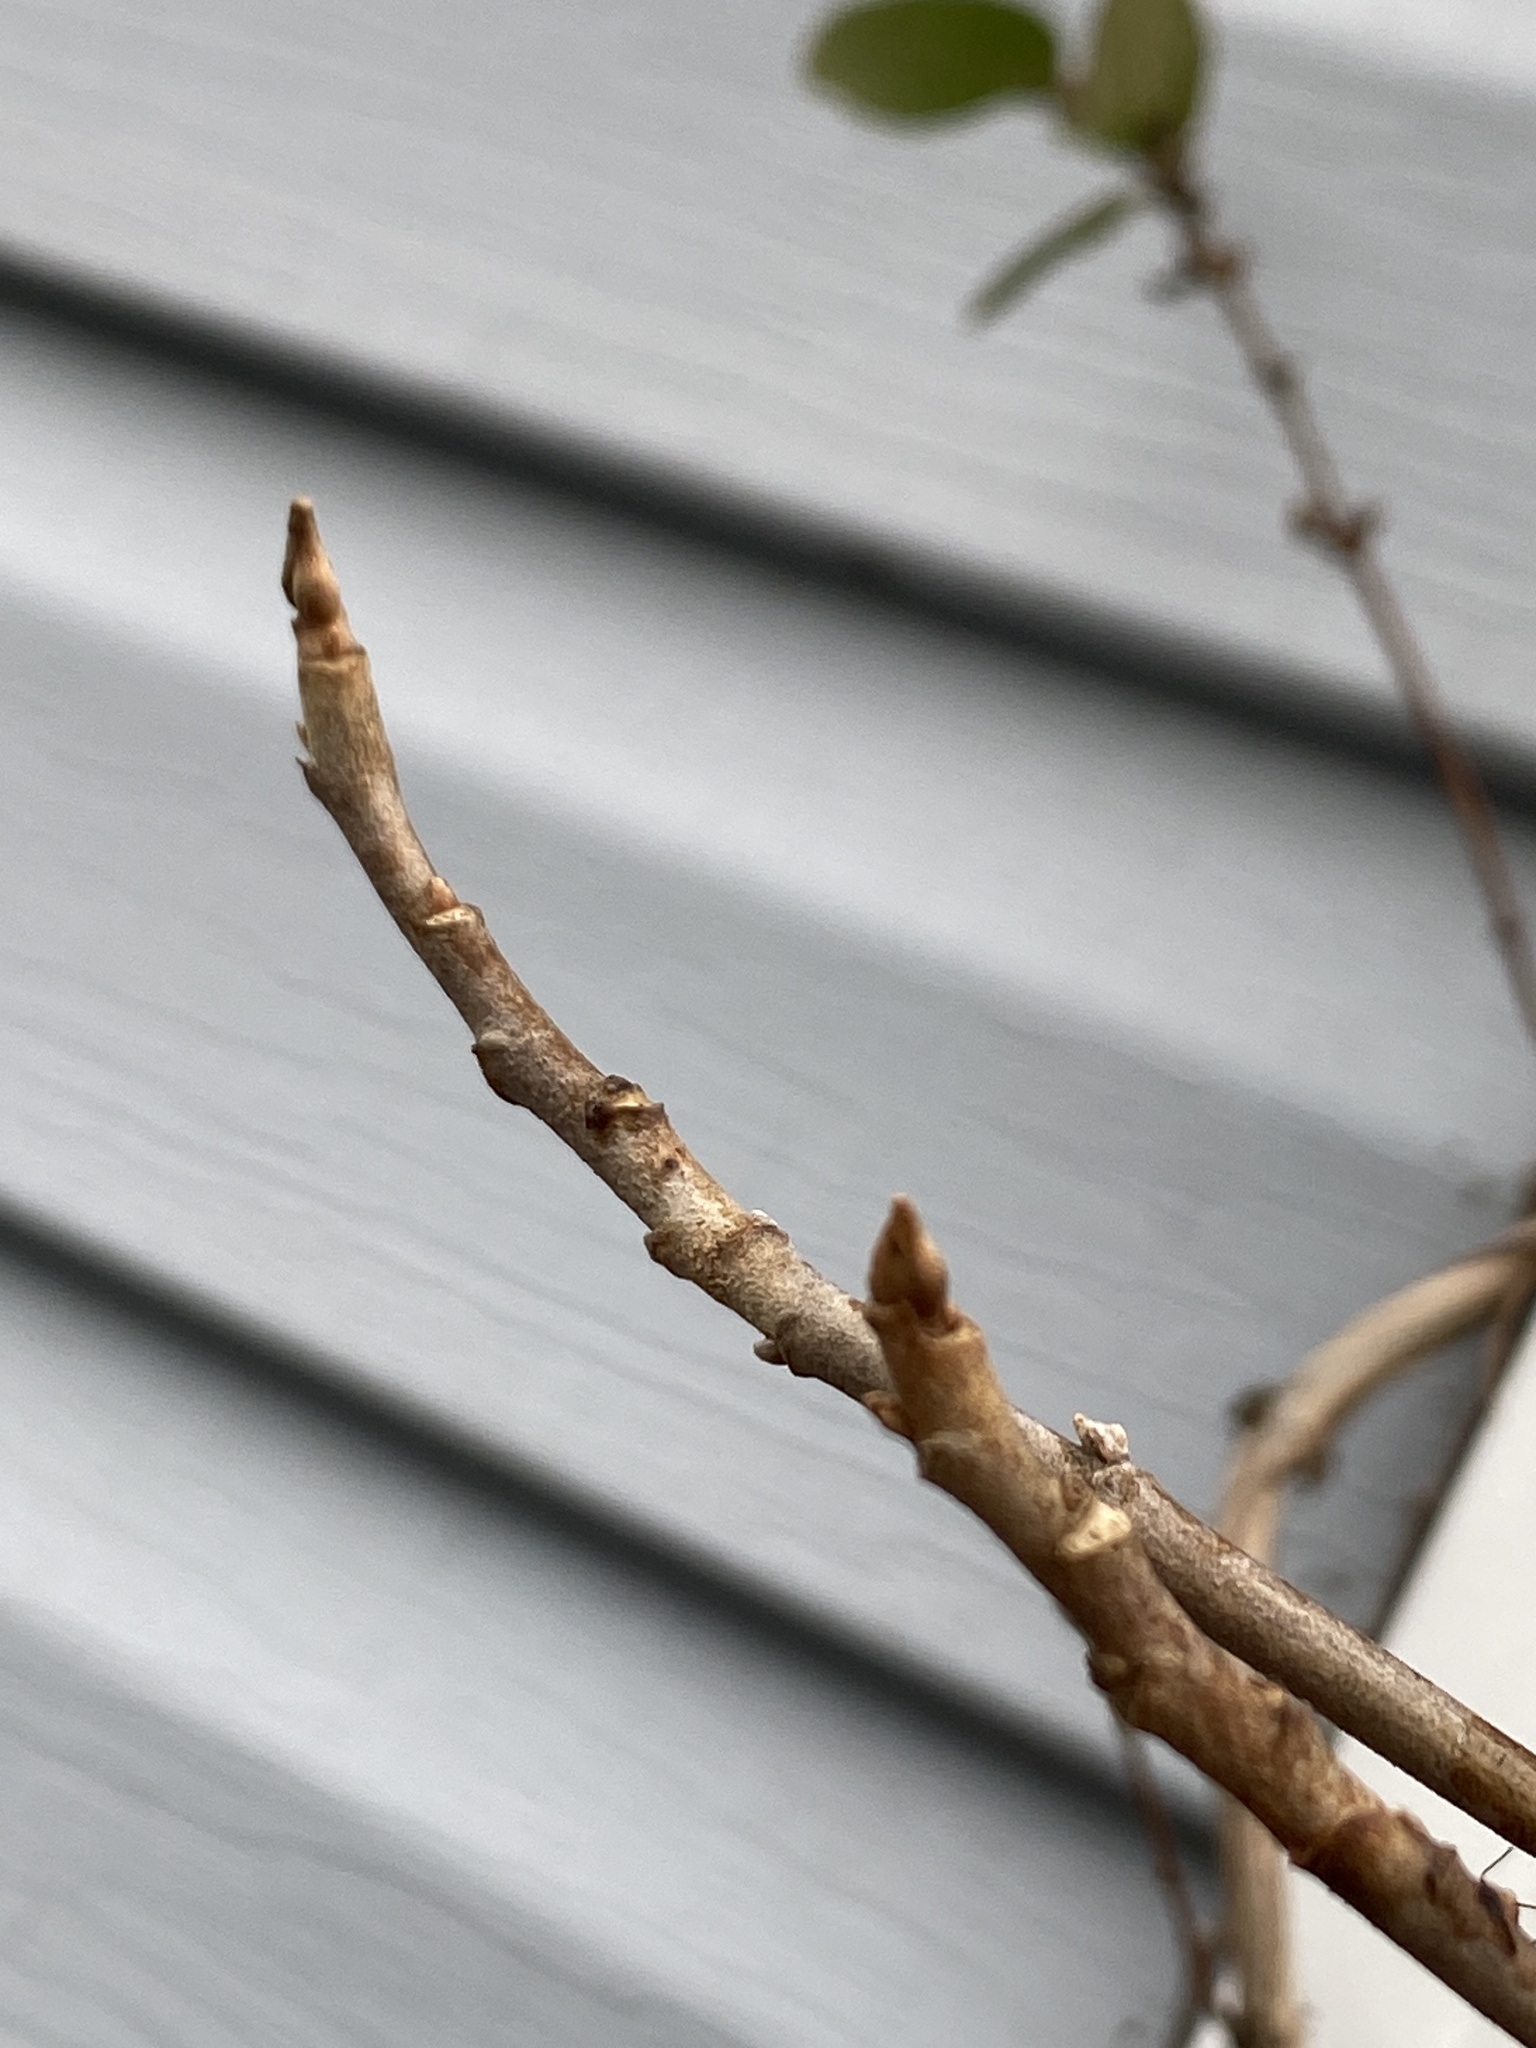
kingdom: Plantae
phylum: Tracheophyta
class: Magnoliopsida
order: Sapindales
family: Anacardiaceae
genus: Toxicodendron
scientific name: Toxicodendron radicans
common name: Poison ivy
